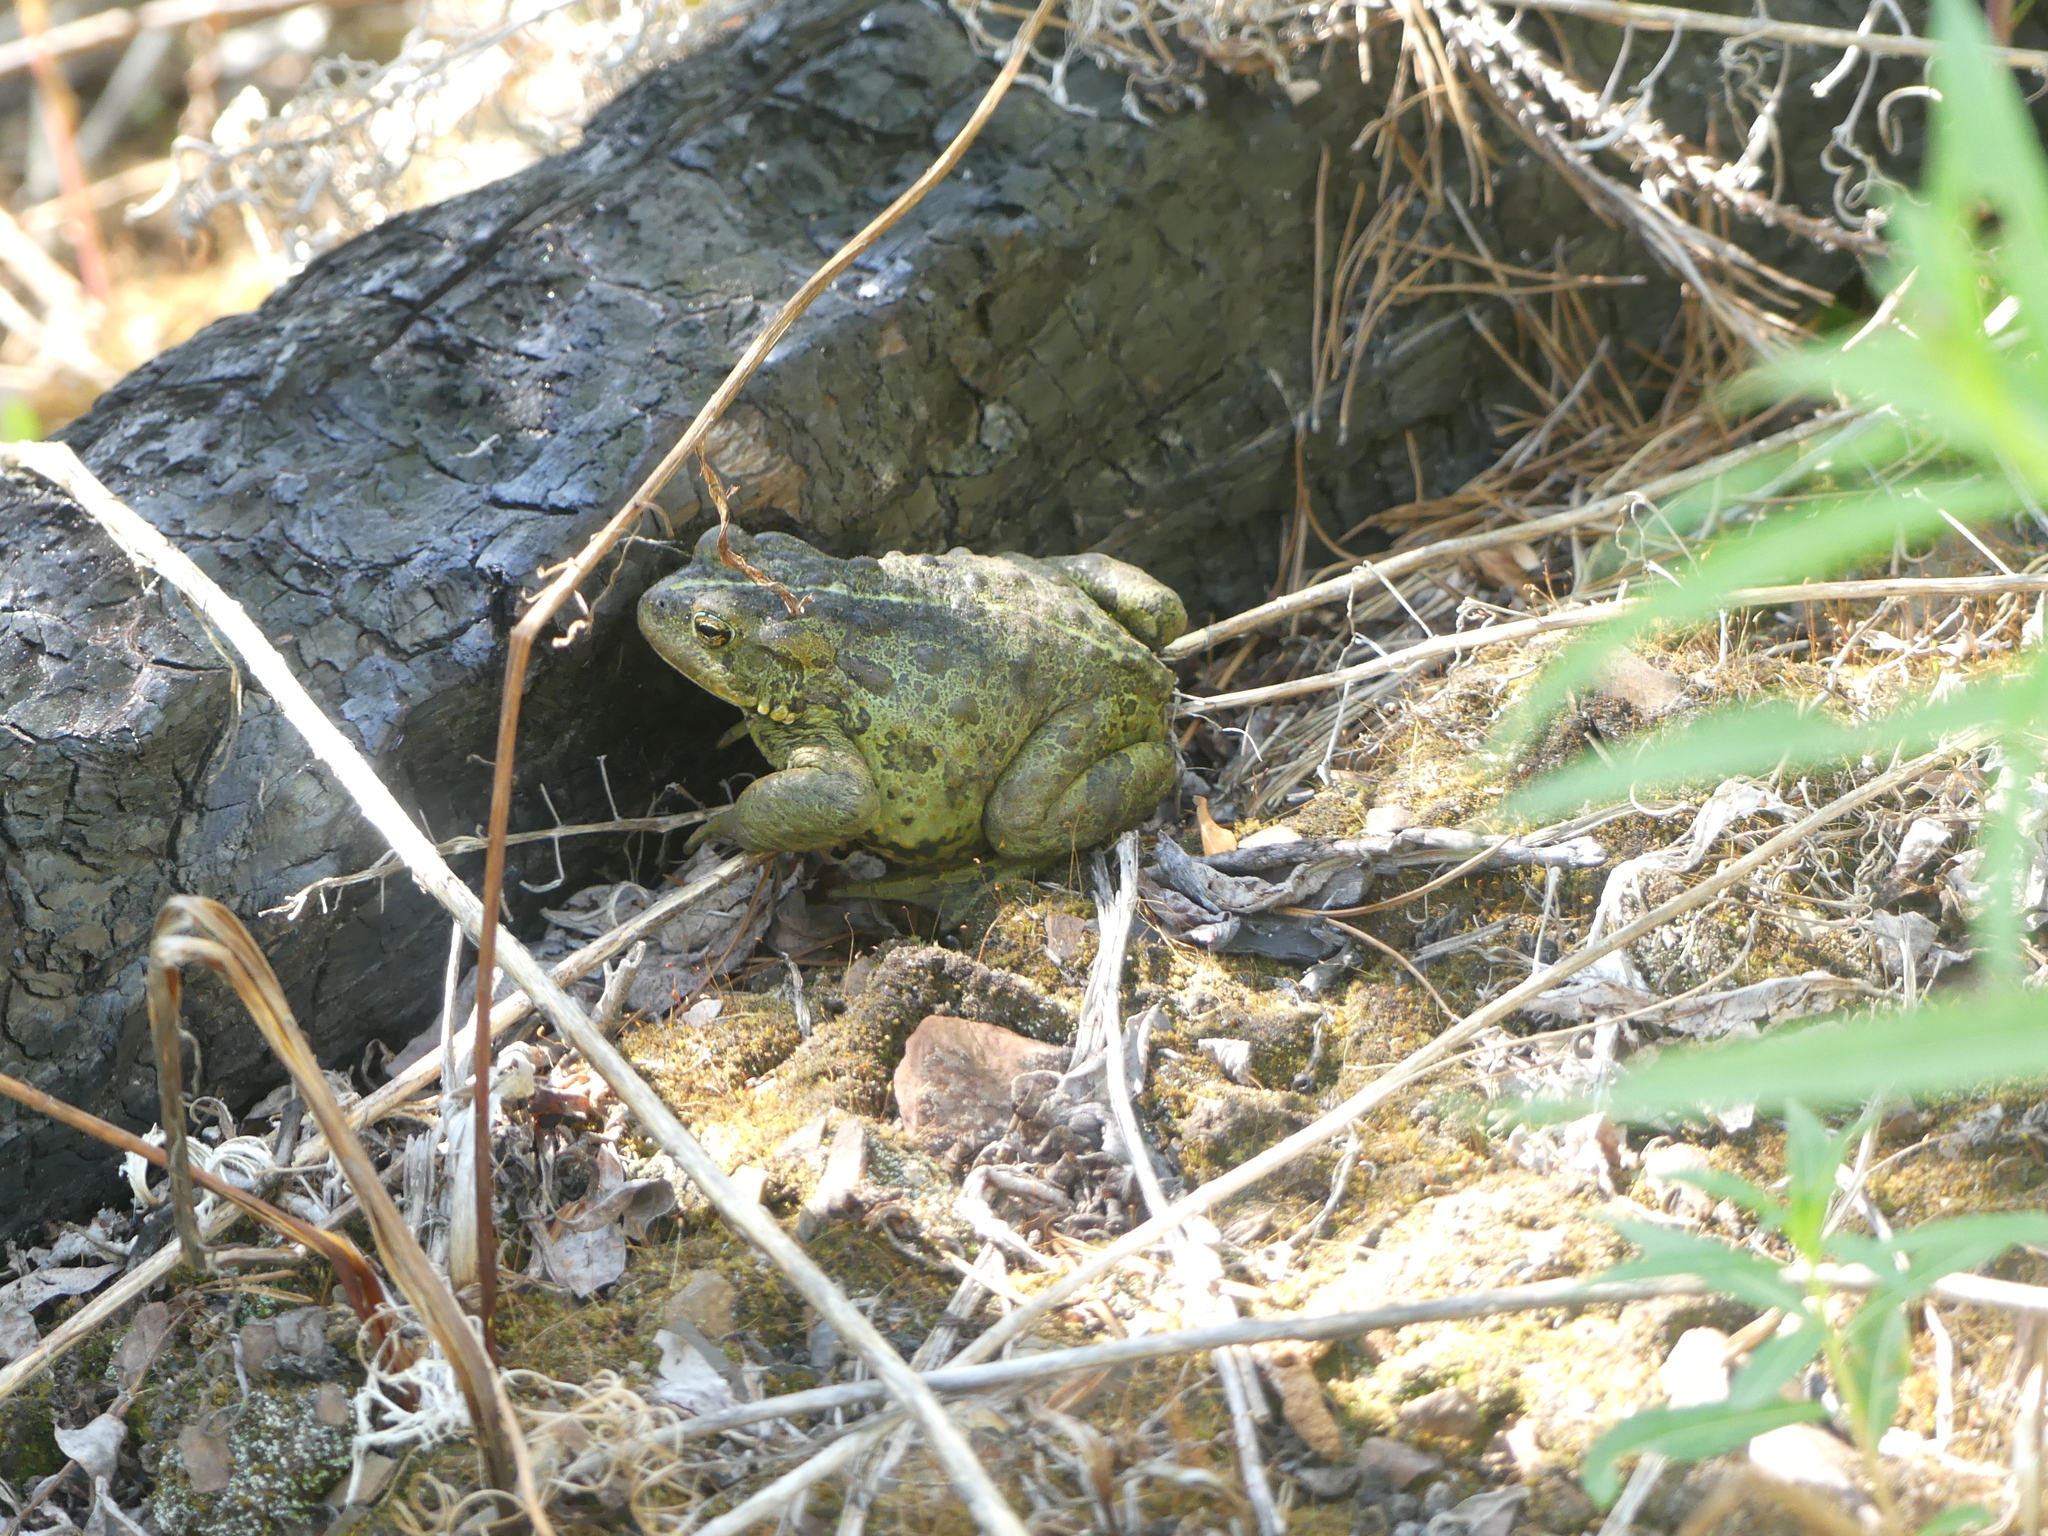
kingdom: Animalia
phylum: Chordata
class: Amphibia
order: Anura
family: Bufonidae
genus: Anaxyrus
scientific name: Anaxyrus boreas
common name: Western toad
